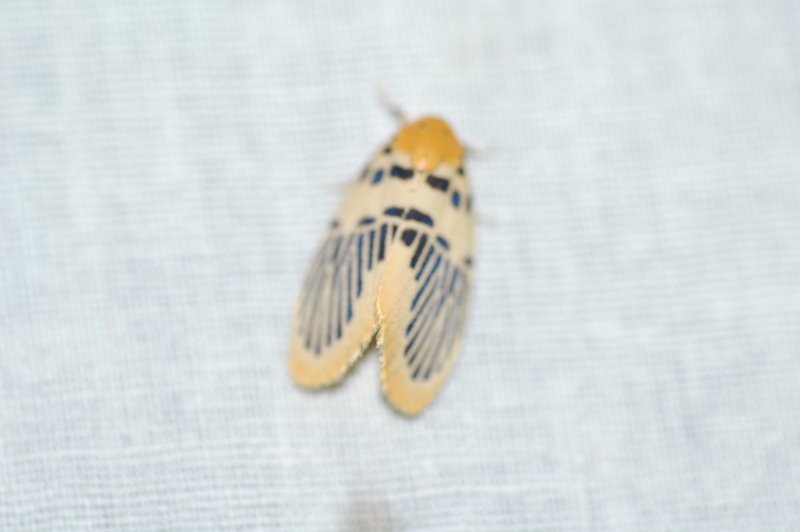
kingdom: Animalia
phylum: Arthropoda
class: Insecta
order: Lepidoptera
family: Erebidae
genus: Stigmatophora
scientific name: Stigmatophora palmata
